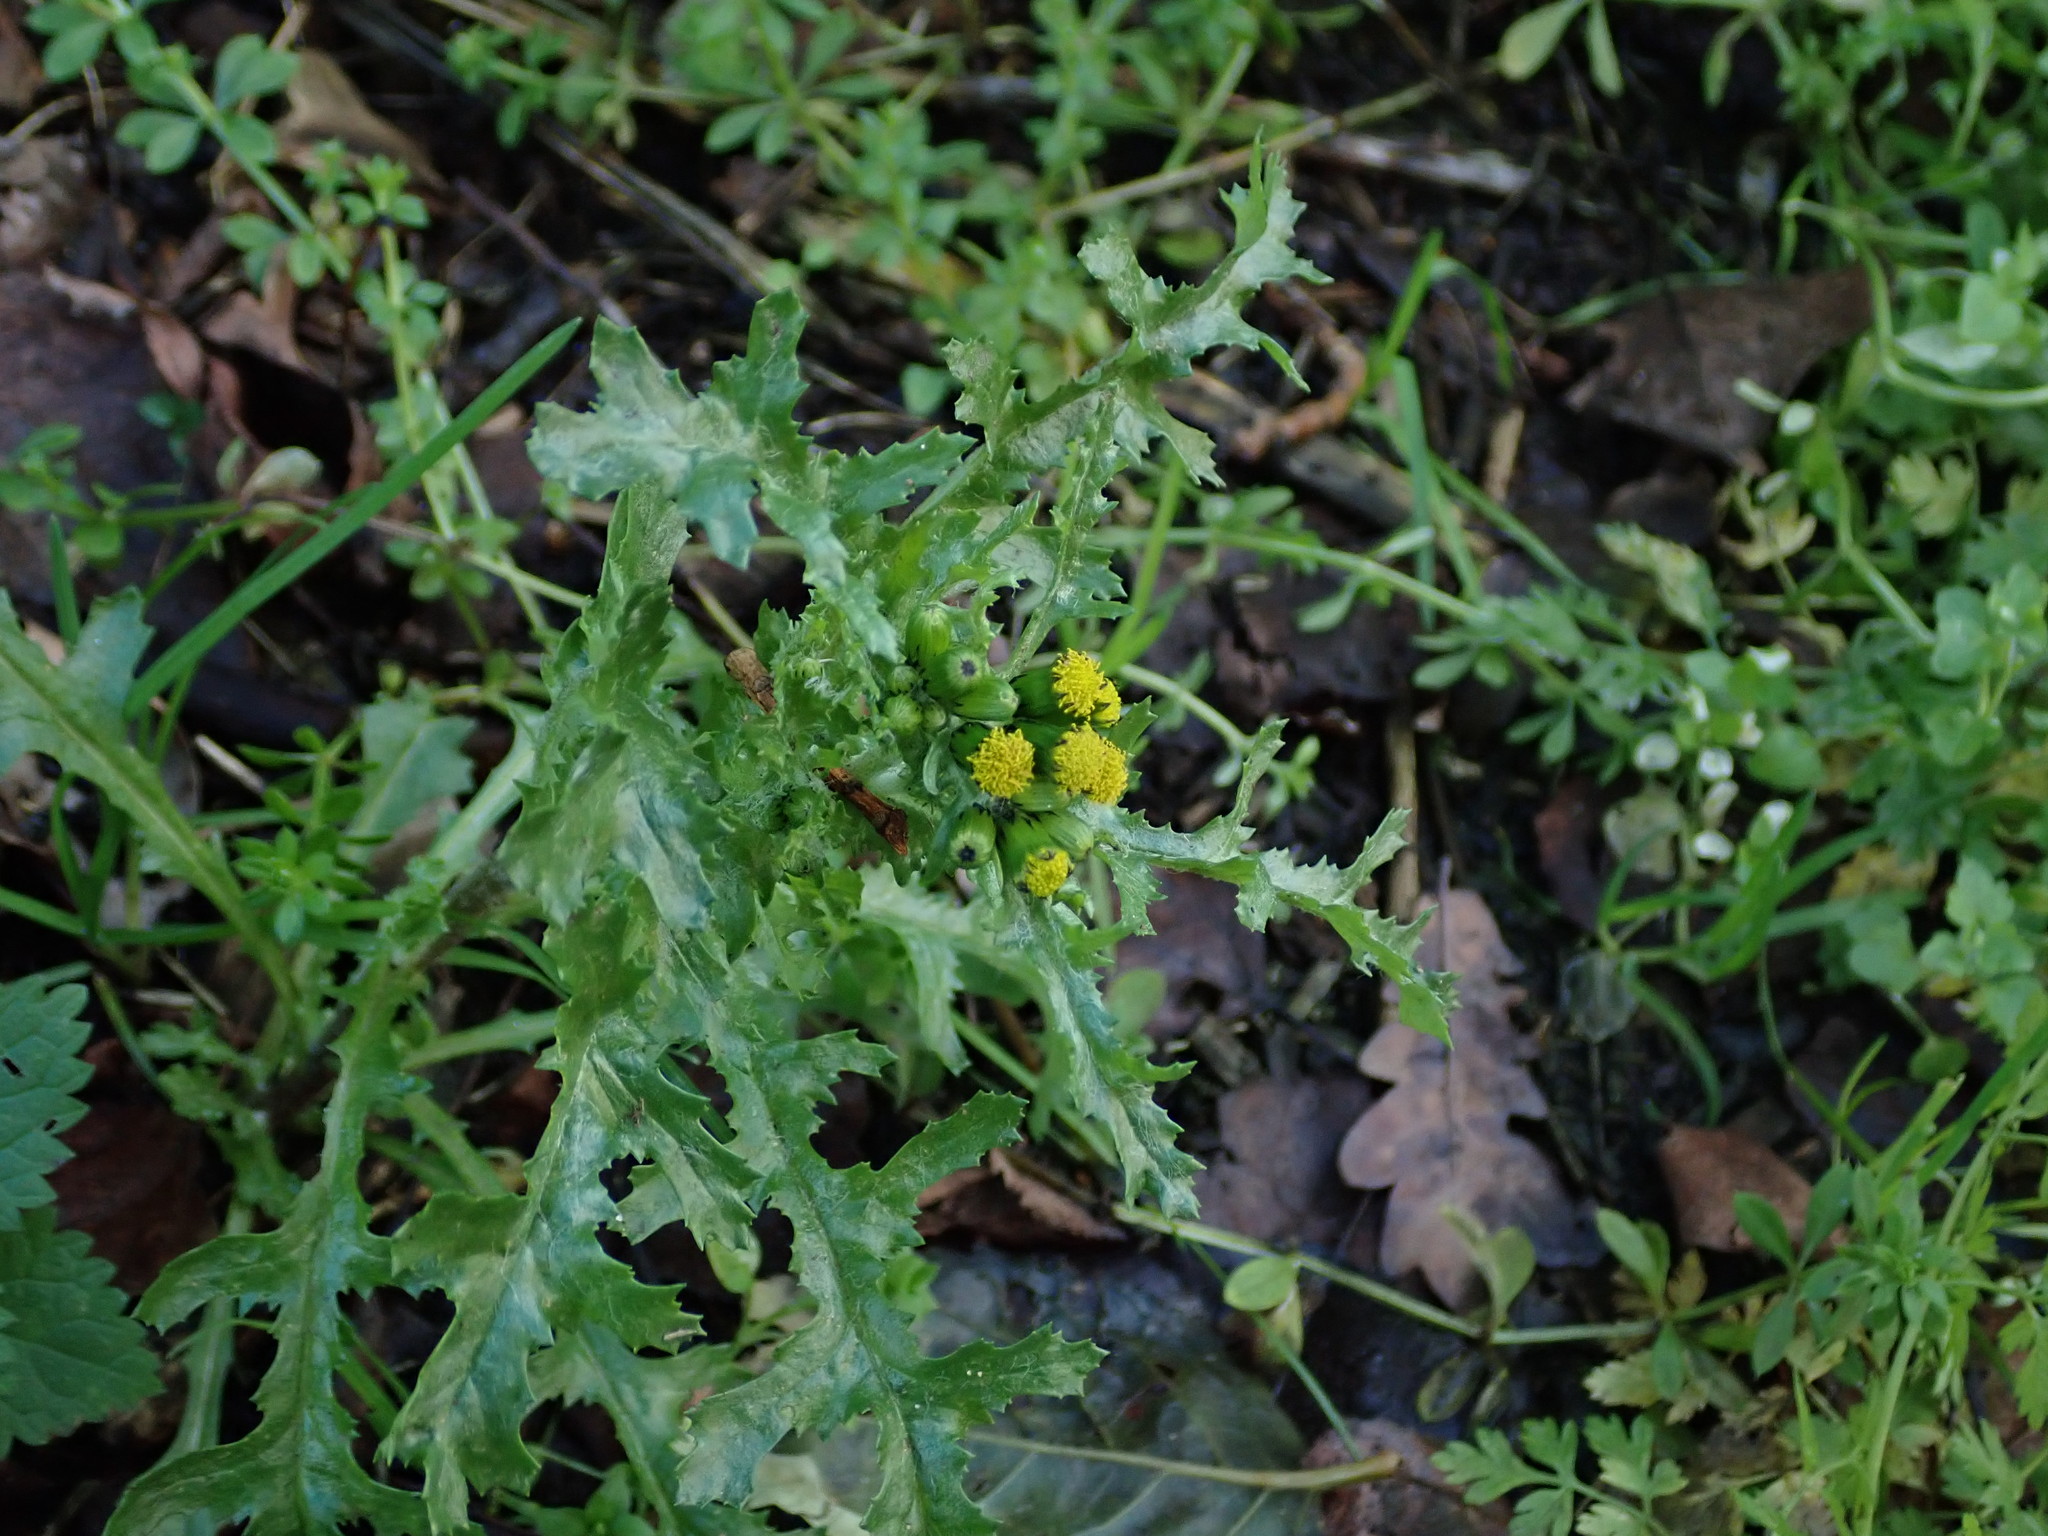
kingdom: Plantae
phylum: Tracheophyta
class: Magnoliopsida
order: Asterales
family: Asteraceae
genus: Senecio
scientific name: Senecio vulgaris
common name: Old-man-in-the-spring
